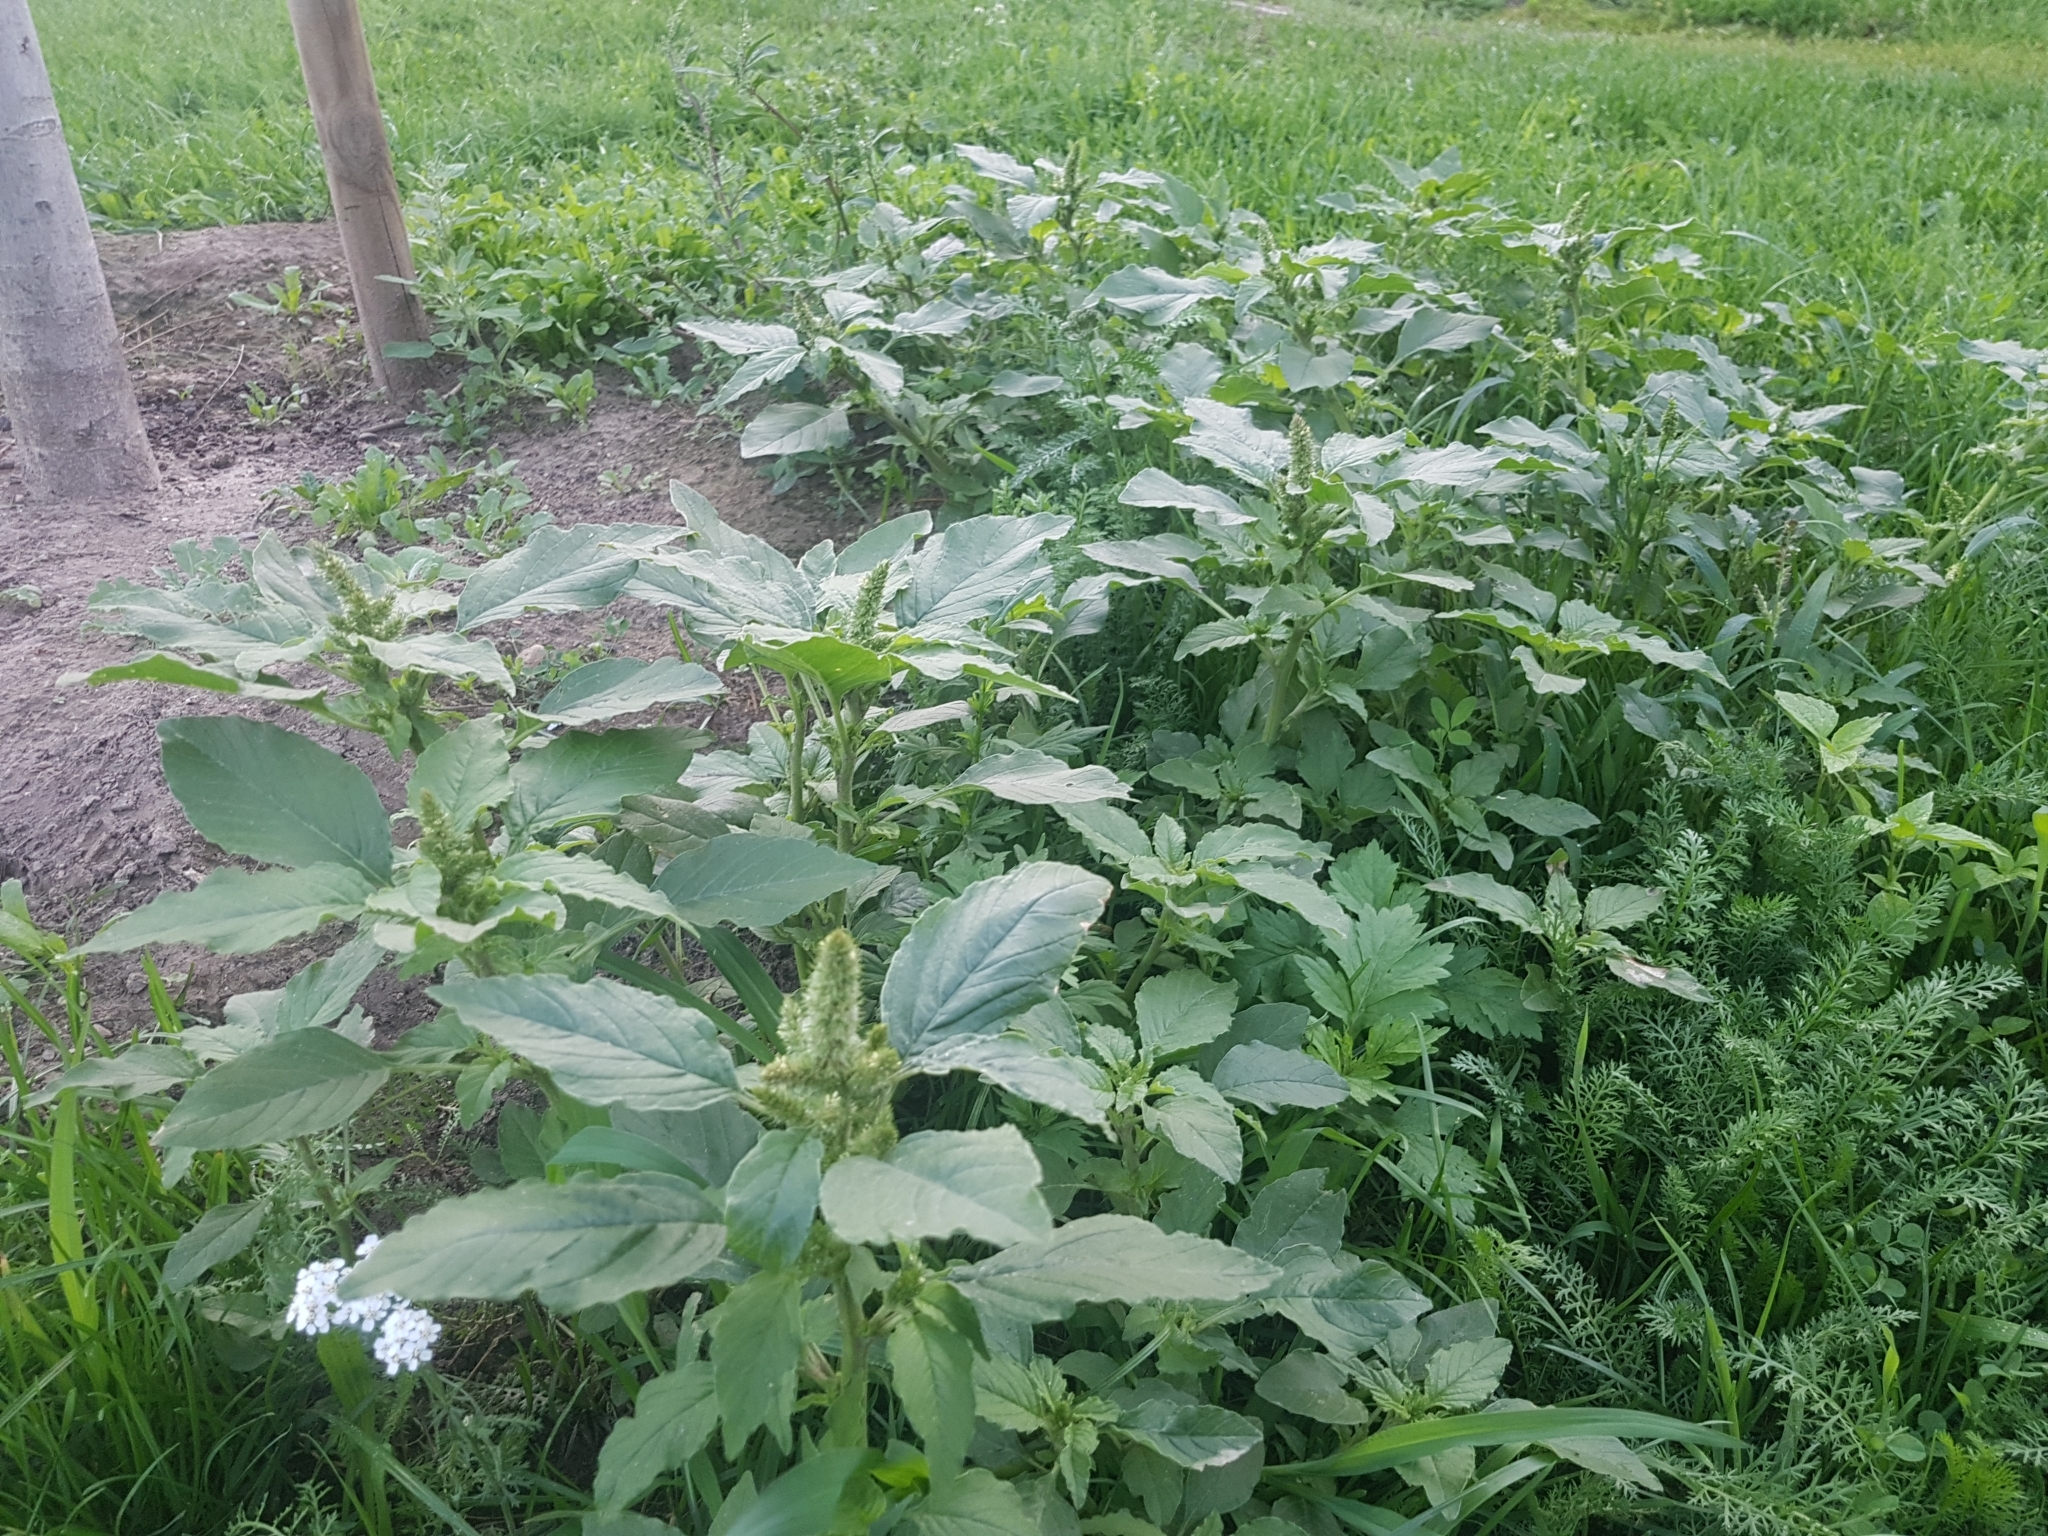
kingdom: Plantae
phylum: Tracheophyta
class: Magnoliopsida
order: Caryophyllales
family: Amaranthaceae
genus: Amaranthus
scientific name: Amaranthus retroflexus
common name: Redroot amaranth
